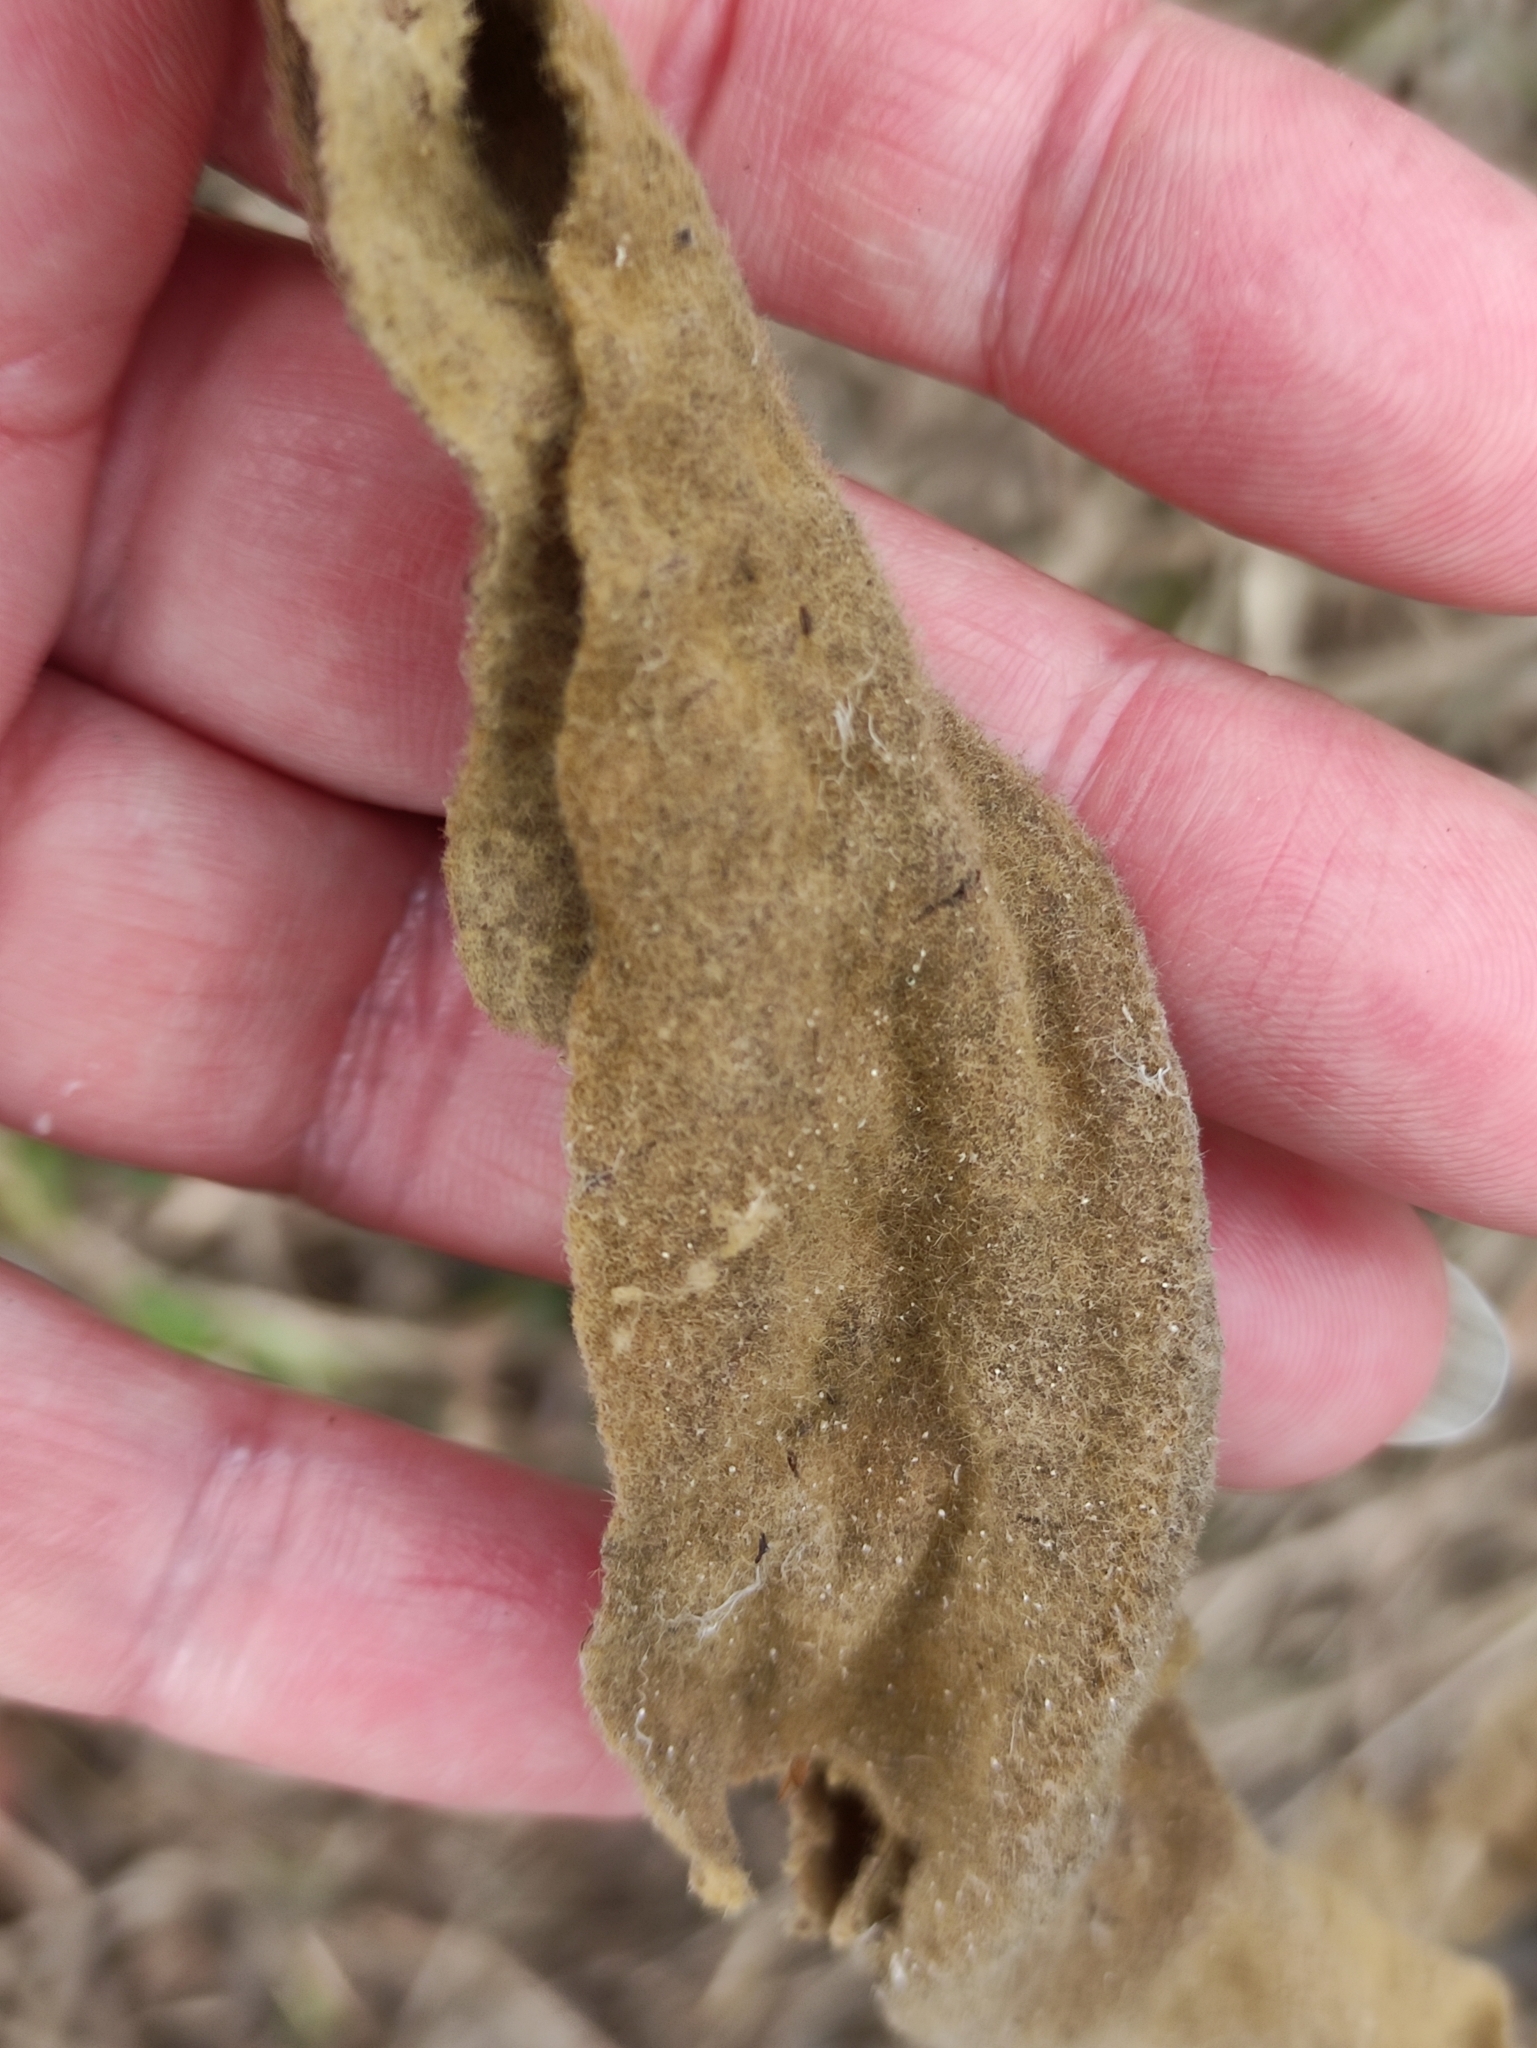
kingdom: Plantae
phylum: Tracheophyta
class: Magnoliopsida
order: Lamiales
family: Scrophulariaceae
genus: Verbascum
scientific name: Verbascum thapsus
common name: Common mullein
